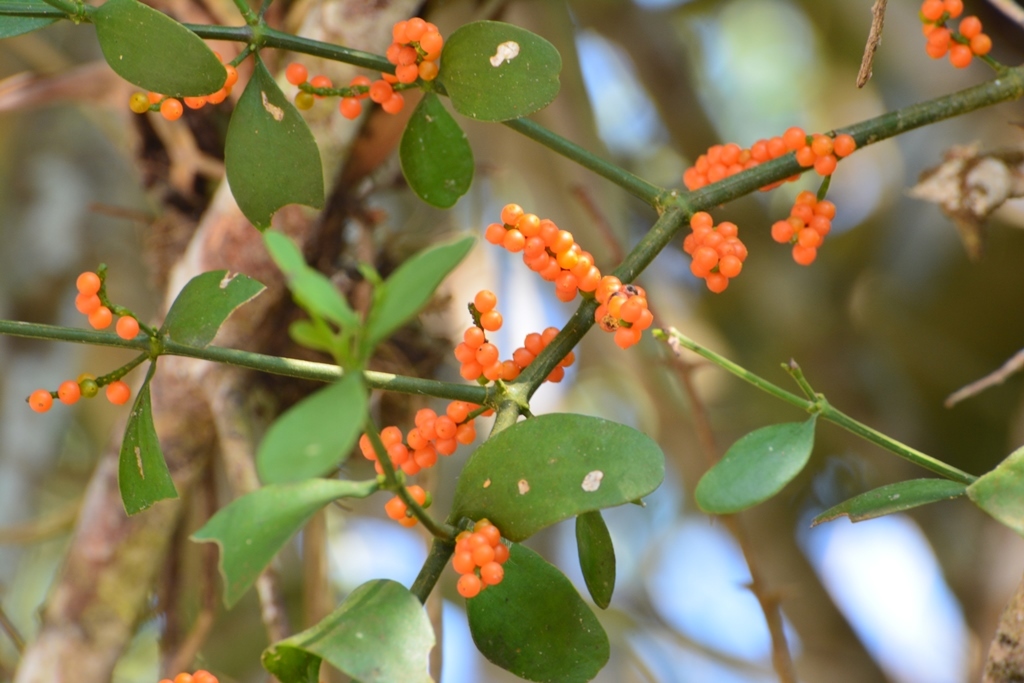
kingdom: Plantae
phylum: Tracheophyta
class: Magnoliopsida
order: Santalales
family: Viscaceae
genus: Phoradendron
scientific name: Phoradendron quadrangulare
